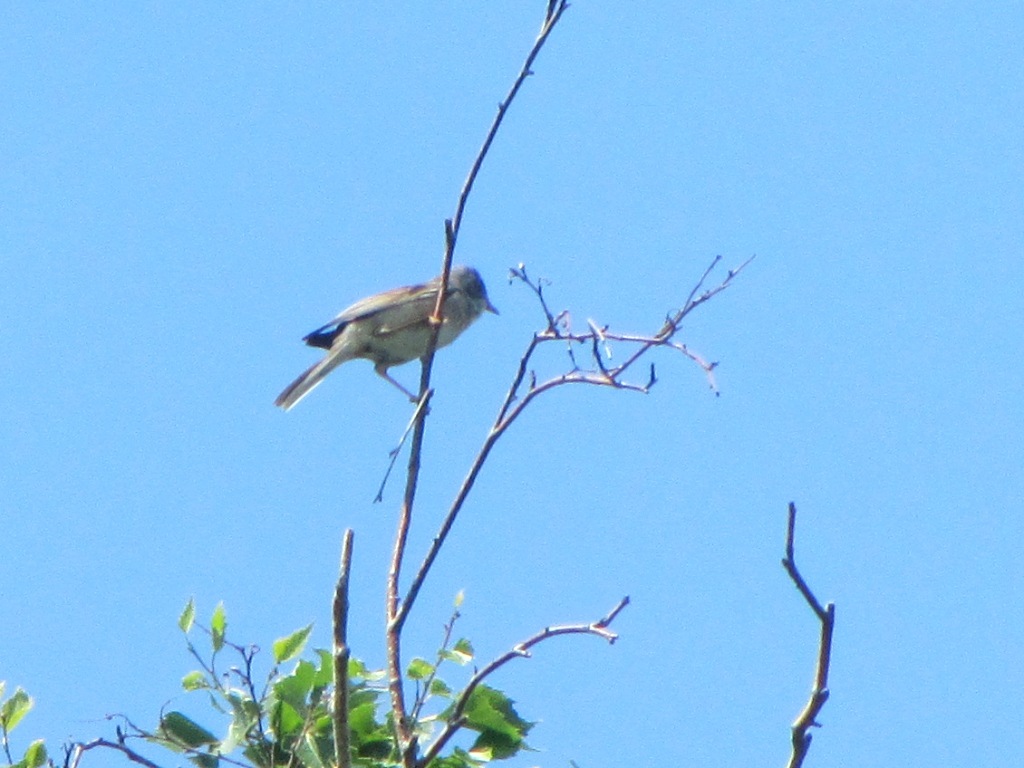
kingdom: Animalia
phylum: Chordata
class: Aves
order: Passeriformes
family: Sylviidae
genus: Sylvia
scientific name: Sylvia communis
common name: Common whitethroat
